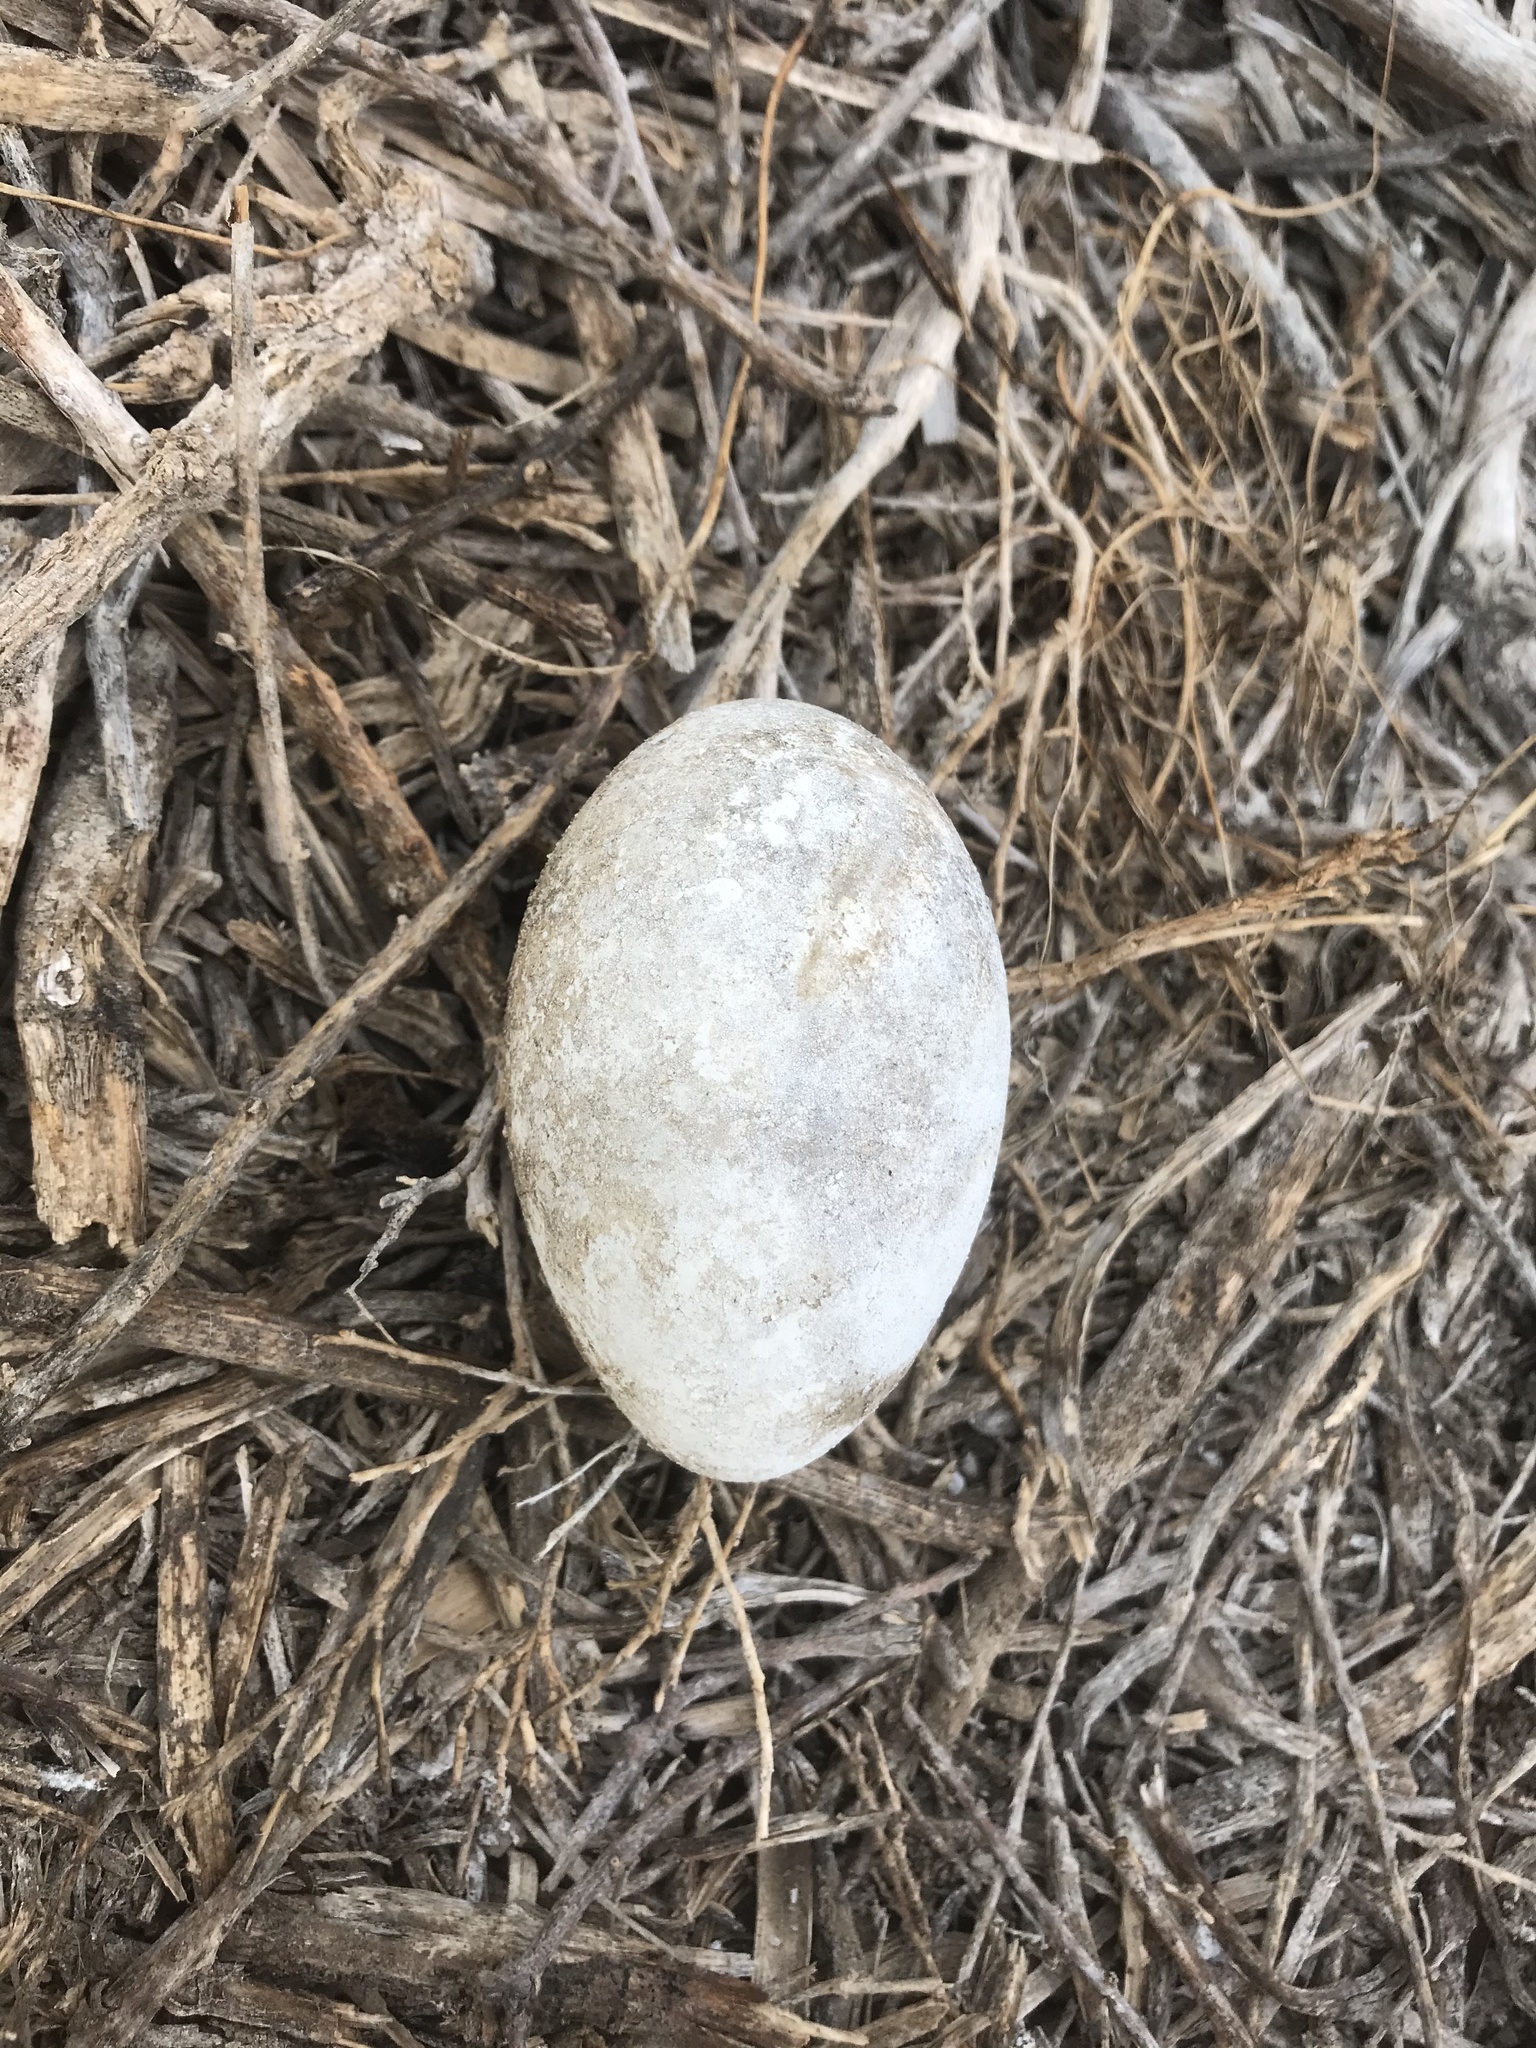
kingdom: Animalia
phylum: Chordata
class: Aves
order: Pelecaniformes
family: Pelecanidae
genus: Pelecanus
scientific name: Pelecanus occidentalis
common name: Brown pelican
